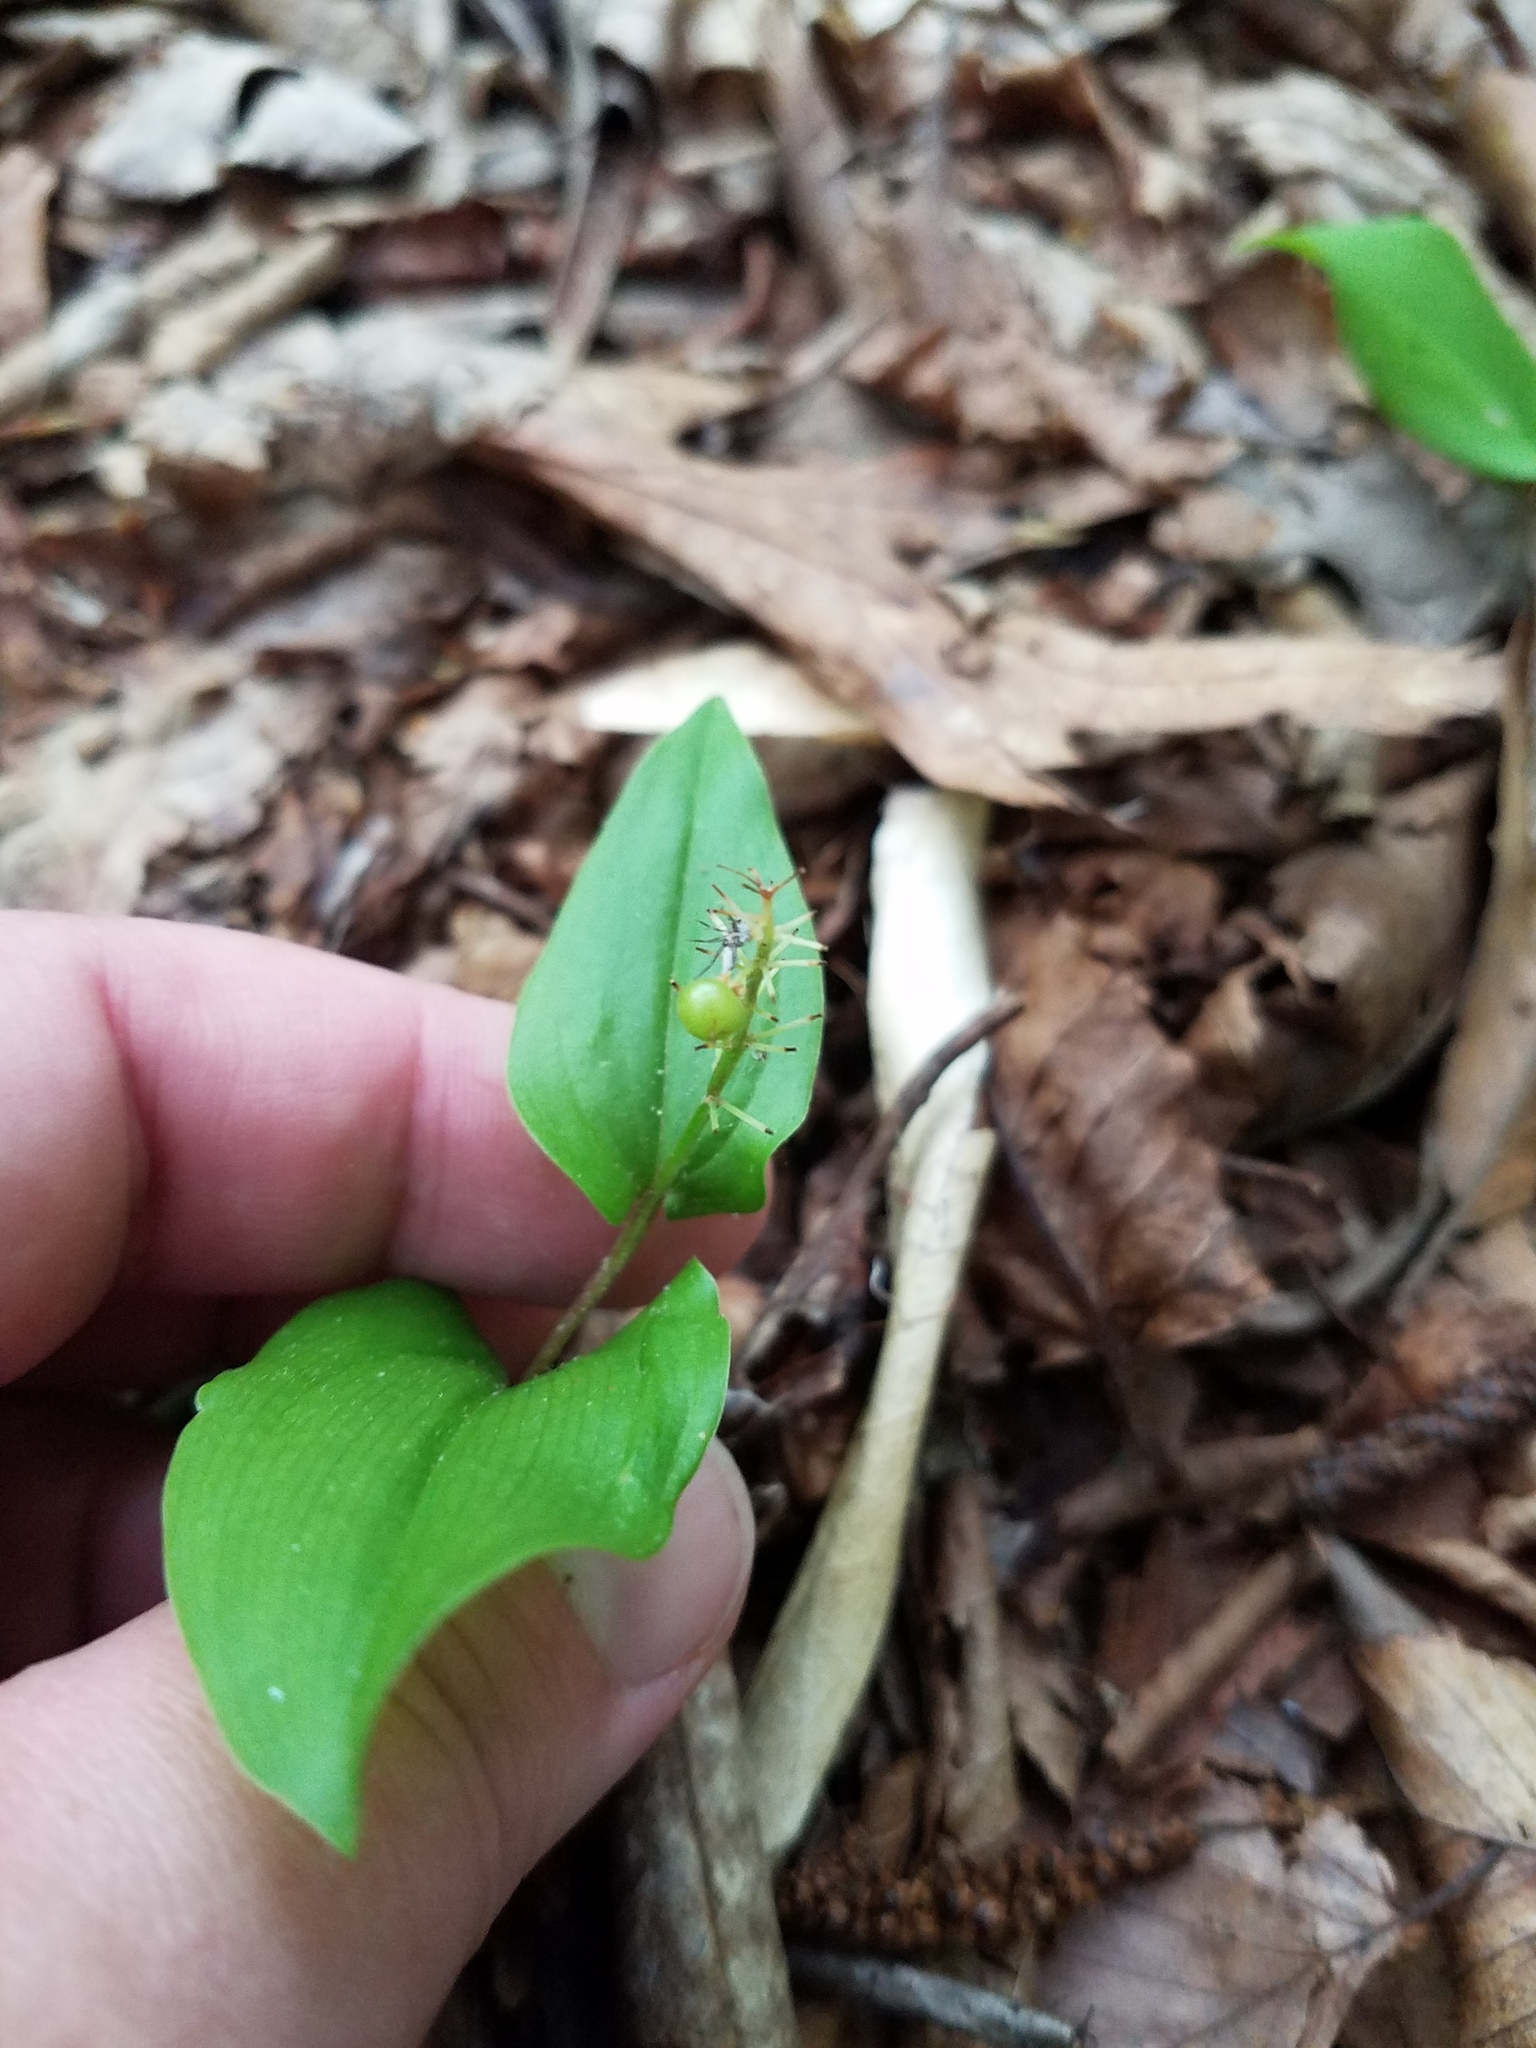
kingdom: Plantae
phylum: Tracheophyta
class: Liliopsida
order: Asparagales
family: Asparagaceae
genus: Maianthemum
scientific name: Maianthemum canadense
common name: False lily-of-the-valley
